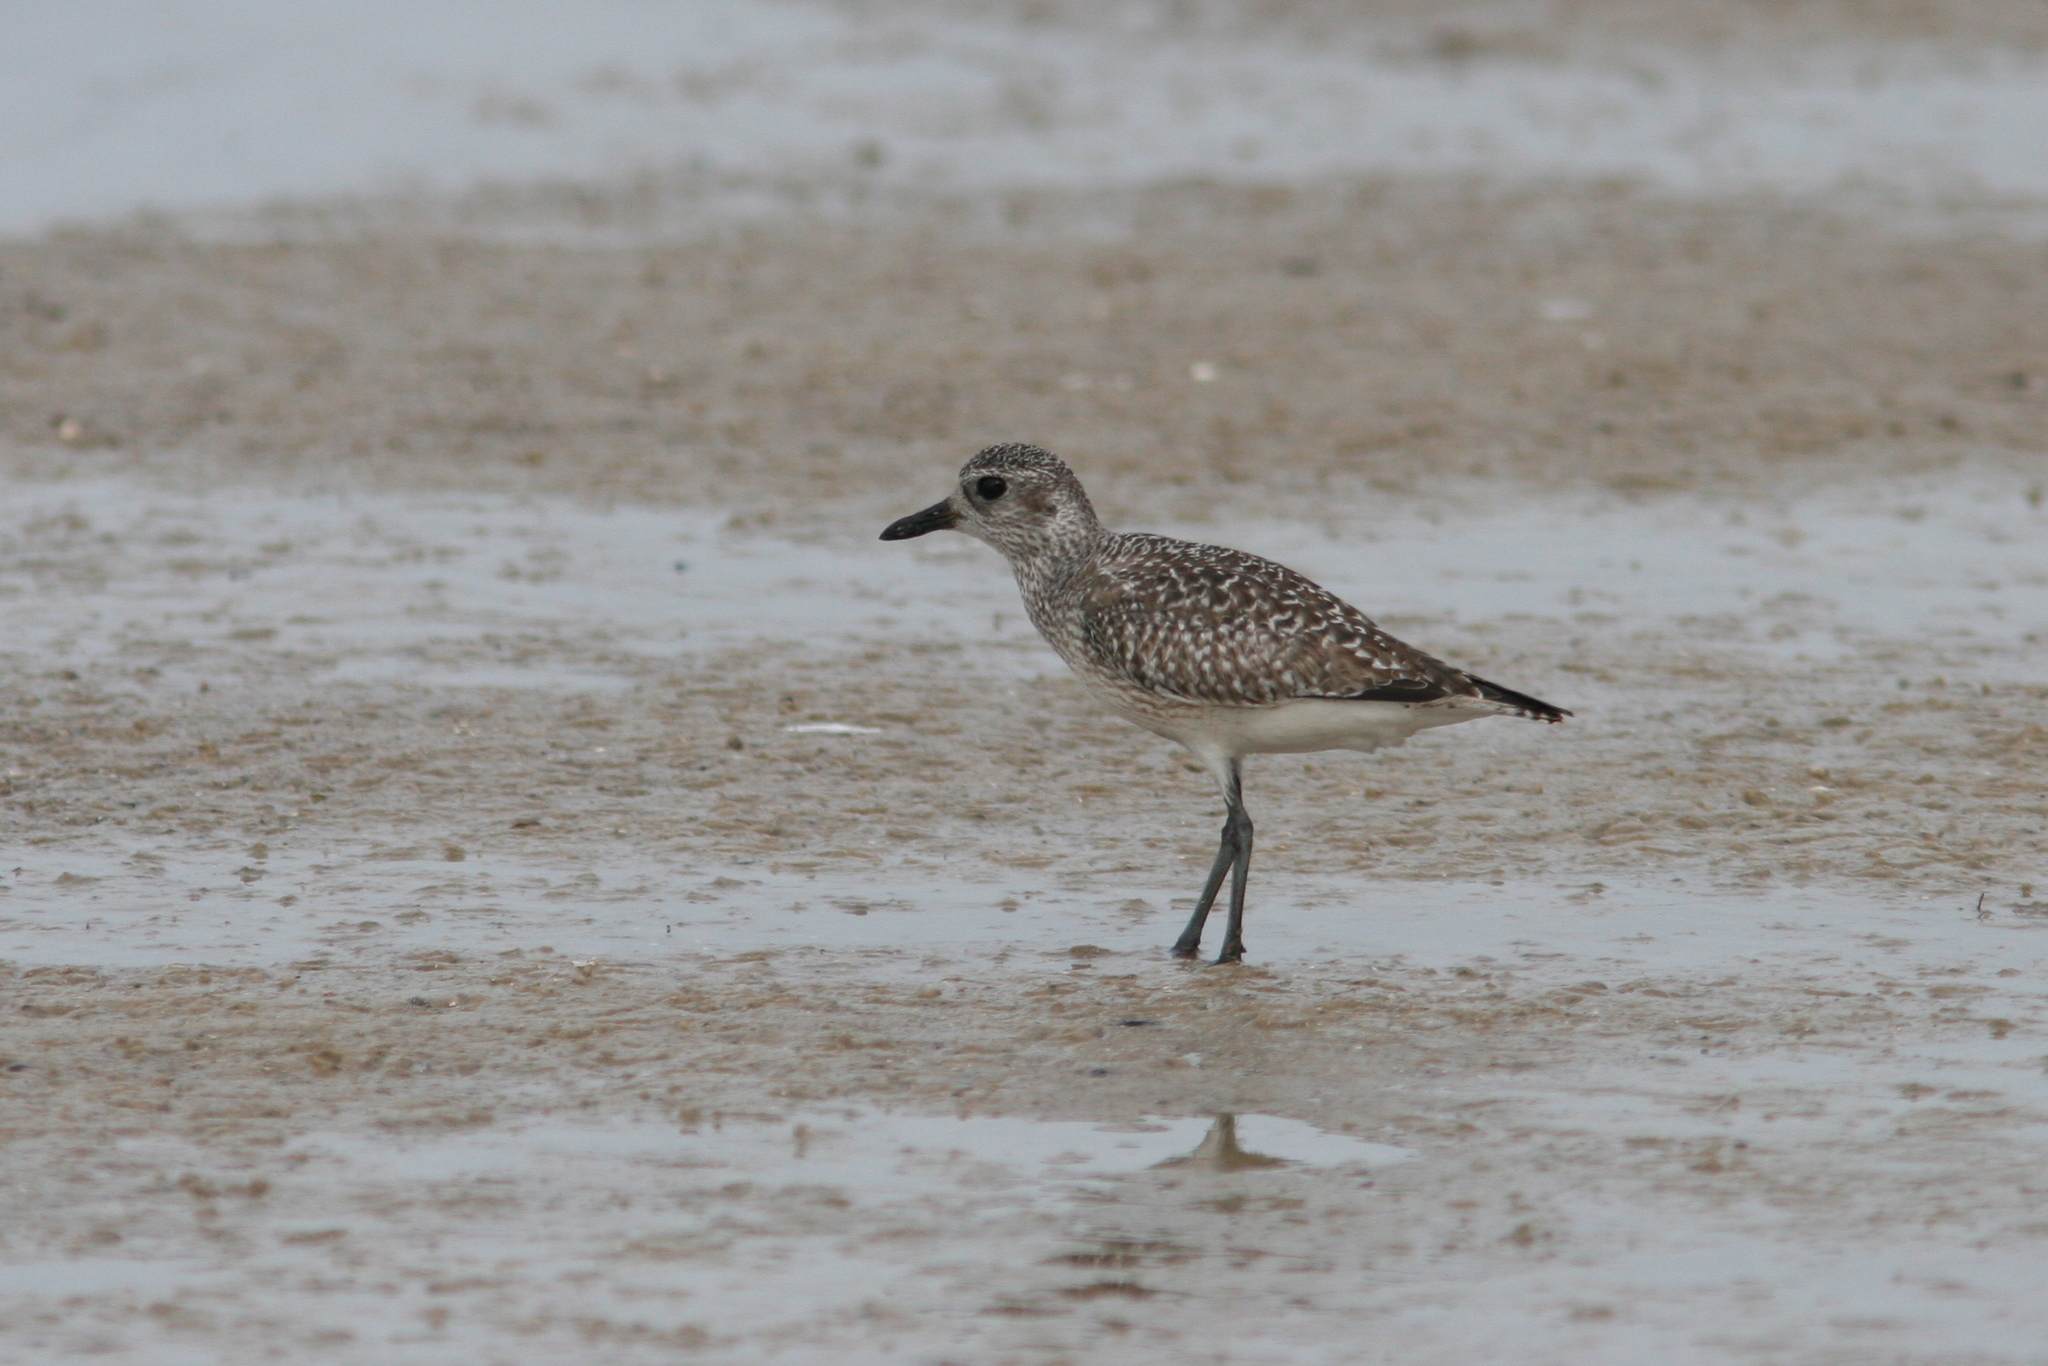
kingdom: Animalia
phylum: Chordata
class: Aves
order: Charadriiformes
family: Charadriidae
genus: Pluvialis
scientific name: Pluvialis squatarola
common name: Grey plover
